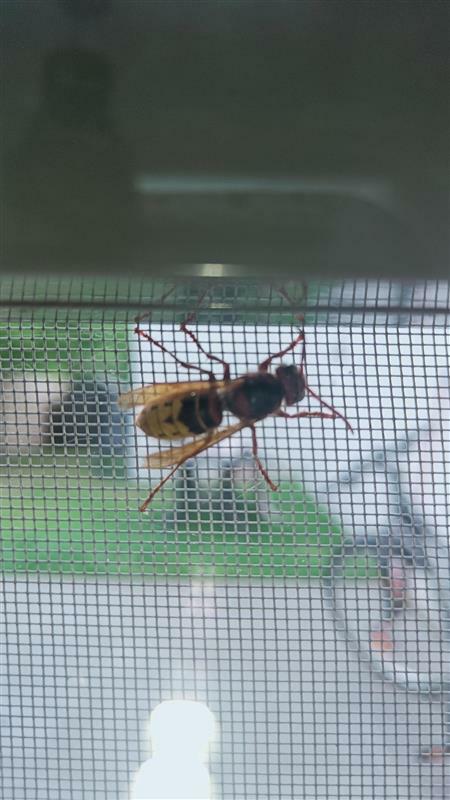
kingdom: Animalia
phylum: Arthropoda
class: Insecta
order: Hymenoptera
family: Vespidae
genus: Vespa
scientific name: Vespa crabro
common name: Hornet
